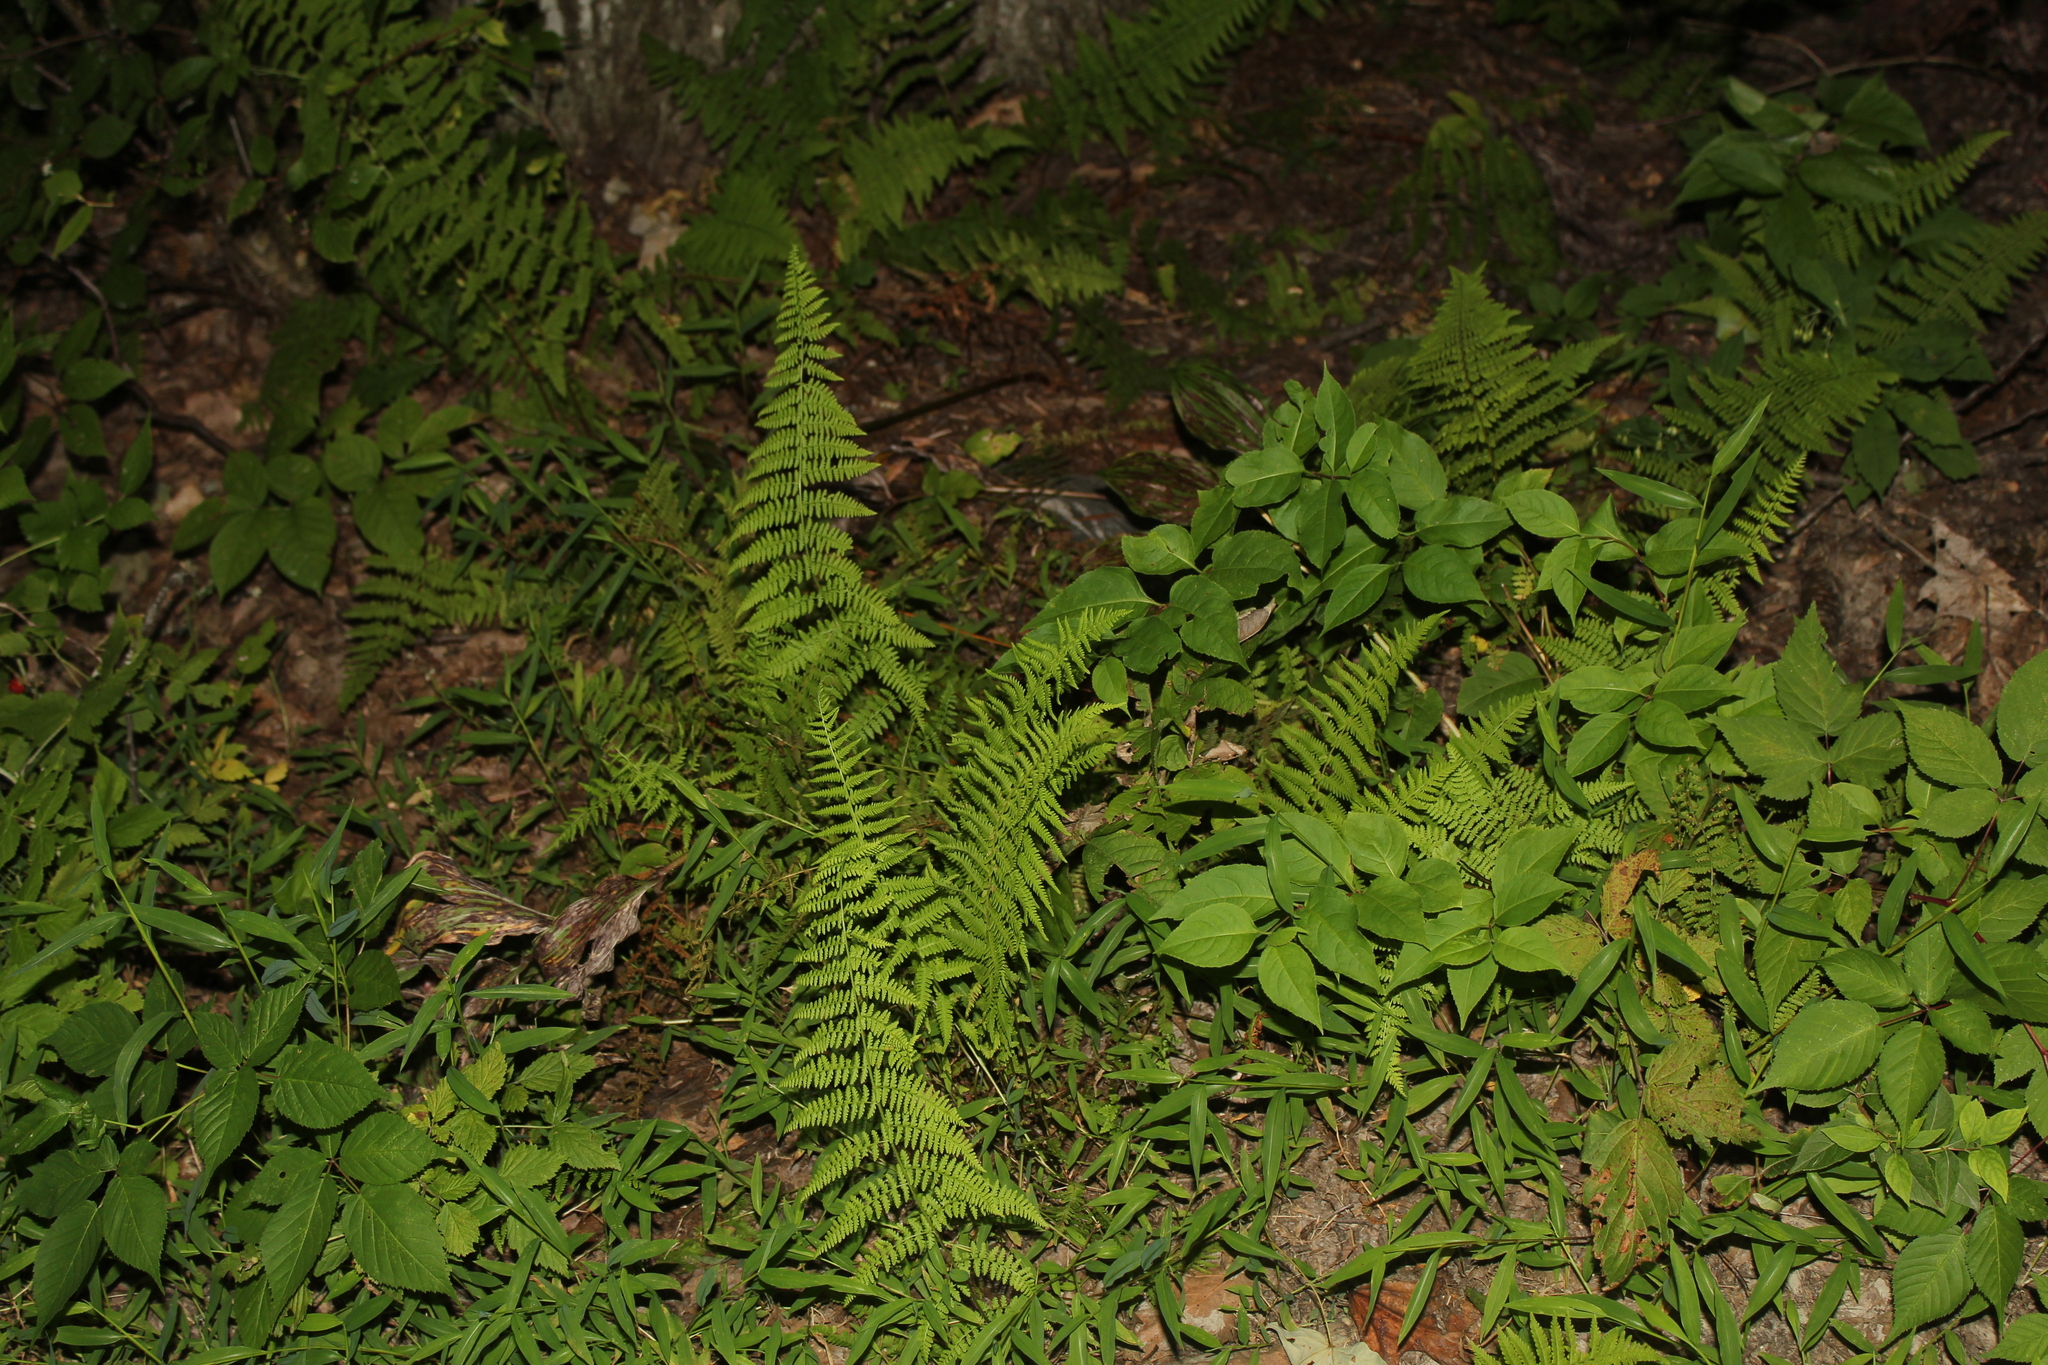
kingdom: Plantae
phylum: Tracheophyta
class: Polypodiopsida
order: Polypodiales
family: Dennstaedtiaceae
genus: Sitobolium
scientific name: Sitobolium punctilobum
